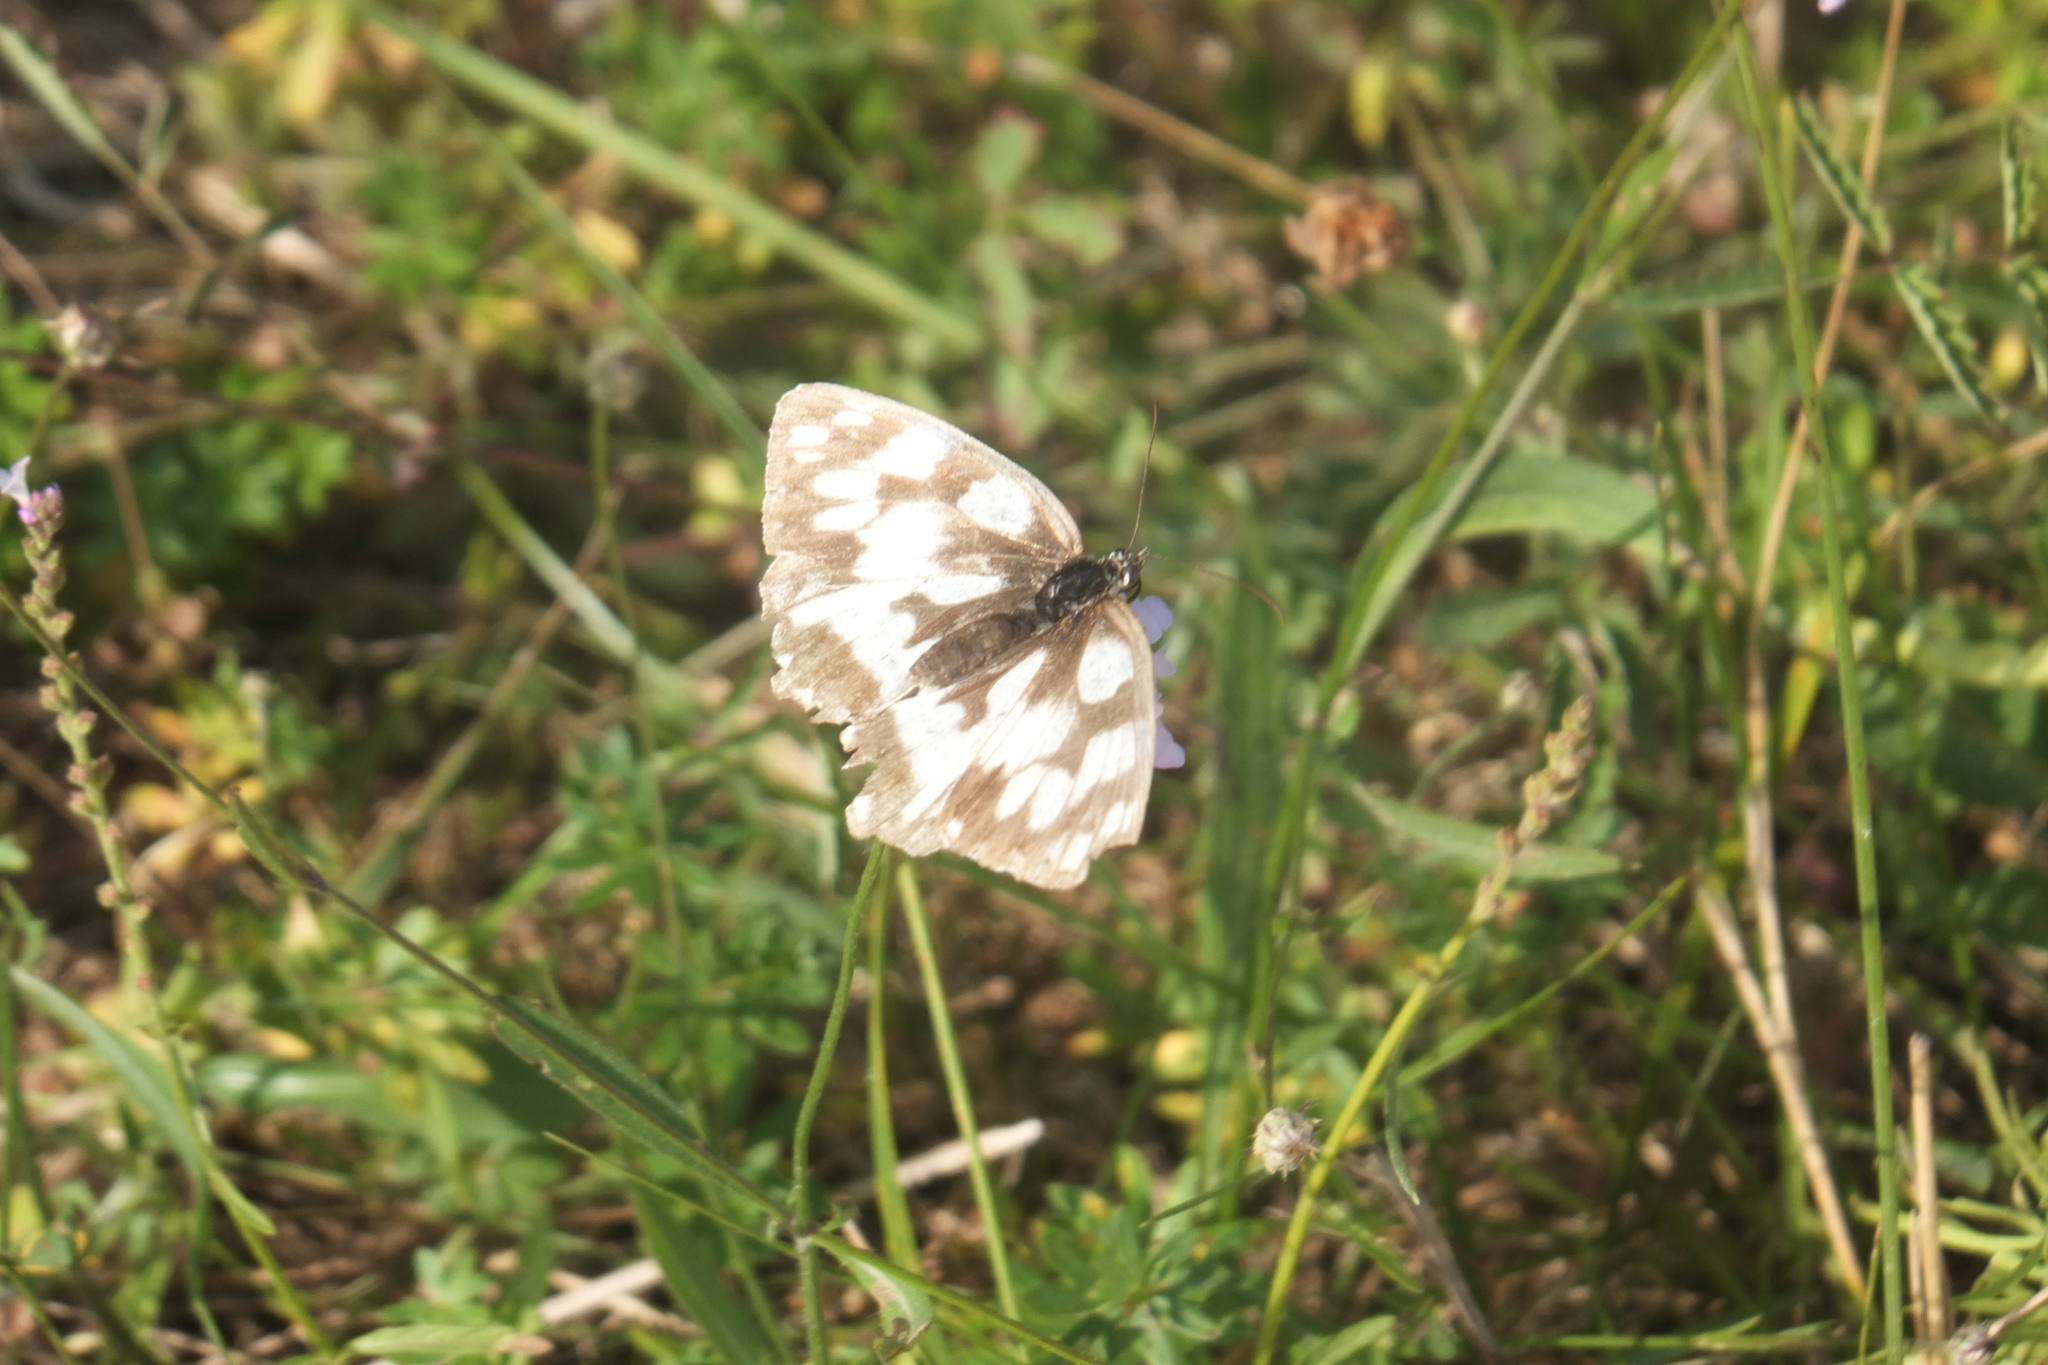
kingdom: Animalia
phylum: Arthropoda
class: Insecta
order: Lepidoptera
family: Nymphalidae
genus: Melanargia
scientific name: Melanargia galathea
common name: Marbled white
